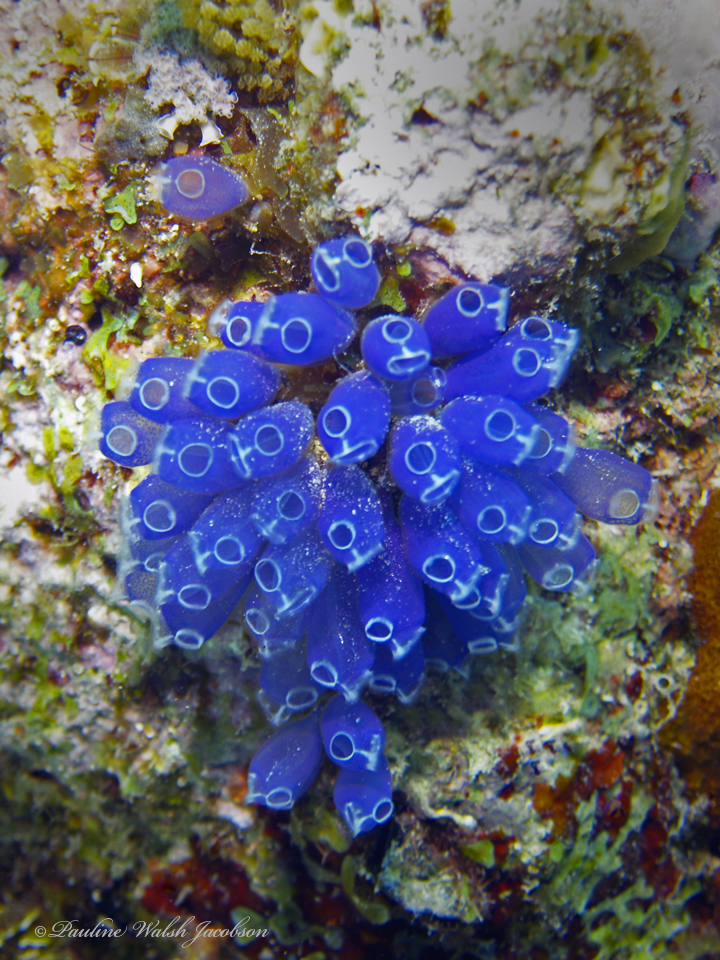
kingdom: Animalia
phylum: Chordata
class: Ascidiacea
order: Aplousobranchia
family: Clavelinidae
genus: Clavelina
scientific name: Clavelina puertosecensis
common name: Blue bell tunicate
